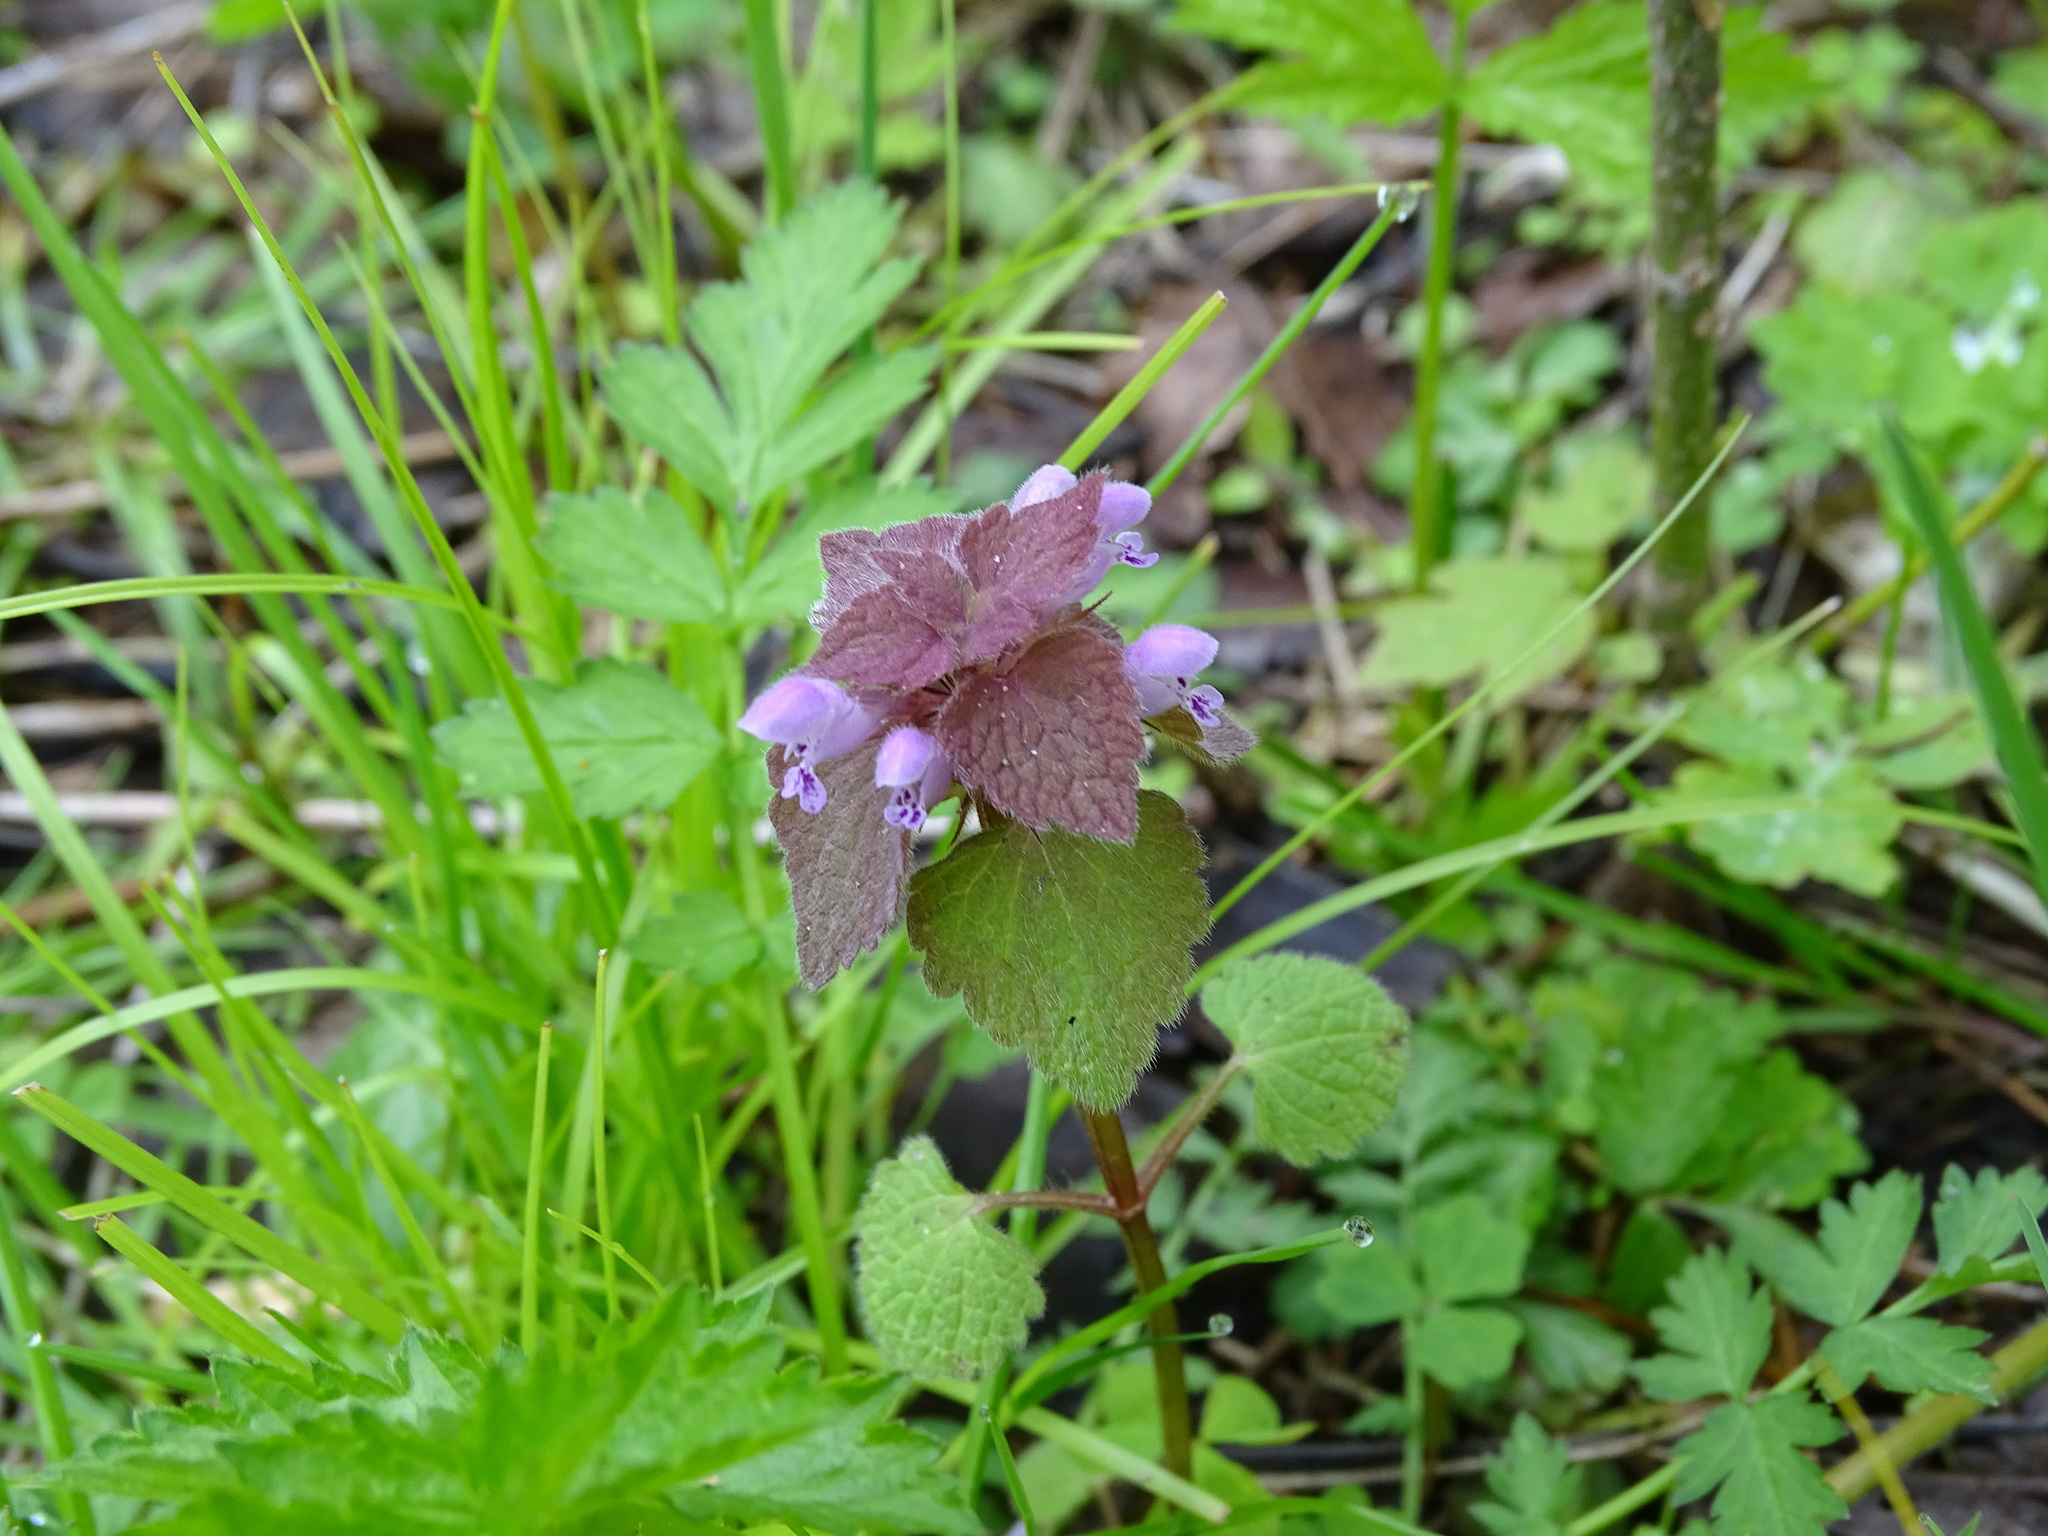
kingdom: Plantae
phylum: Tracheophyta
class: Magnoliopsida
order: Lamiales
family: Lamiaceae
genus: Lamium
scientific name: Lamium purpureum
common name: Red dead-nettle
